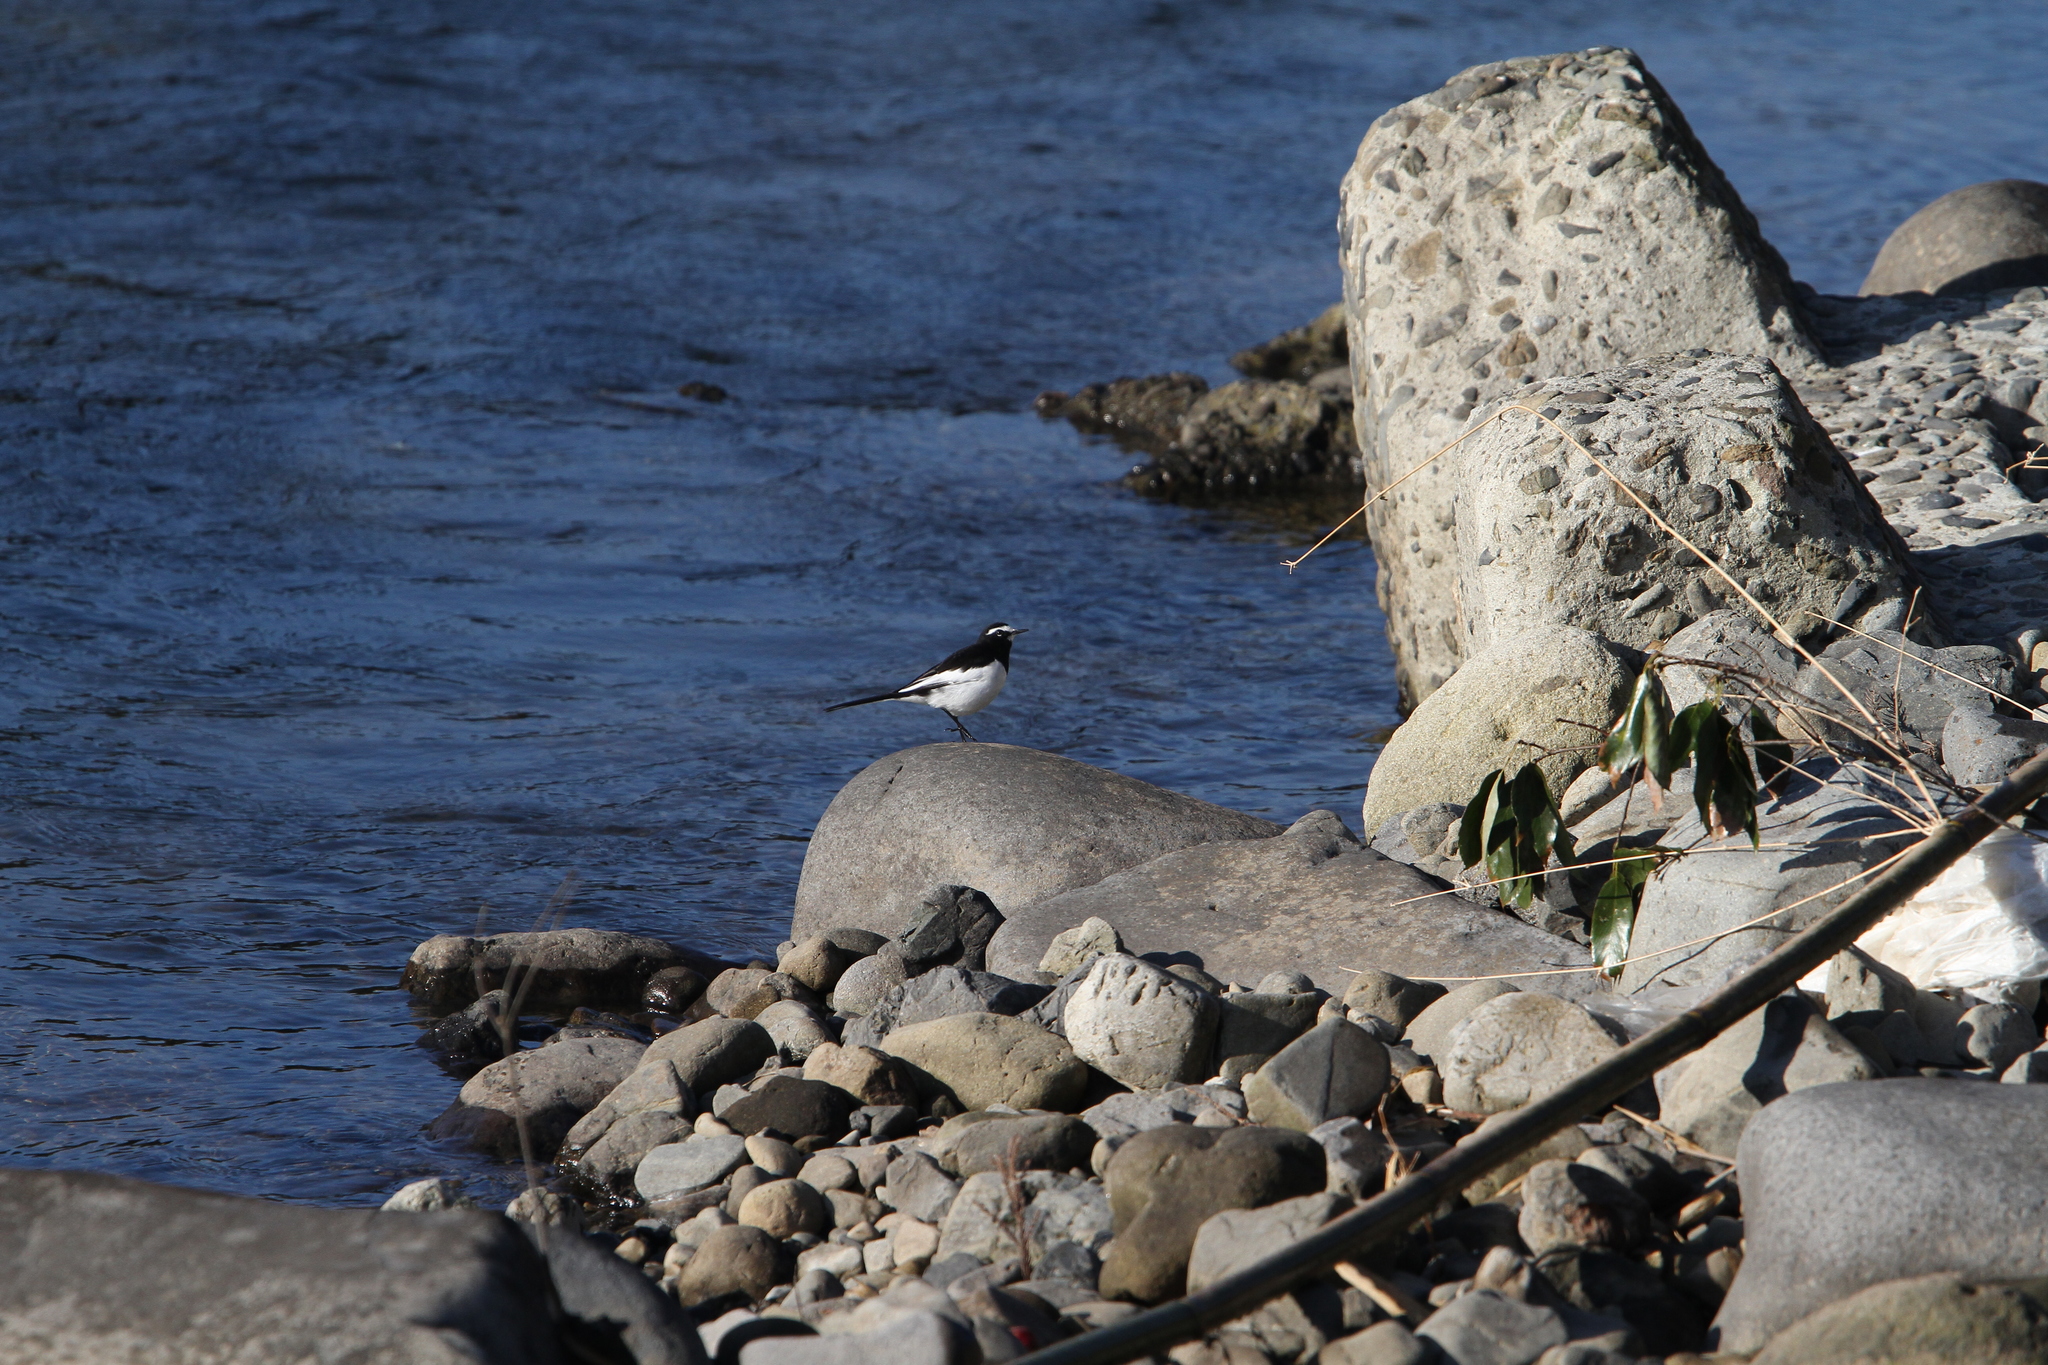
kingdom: Animalia
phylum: Chordata
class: Aves
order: Passeriformes
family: Motacillidae
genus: Motacilla
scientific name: Motacilla grandis
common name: Japanese wagtail
